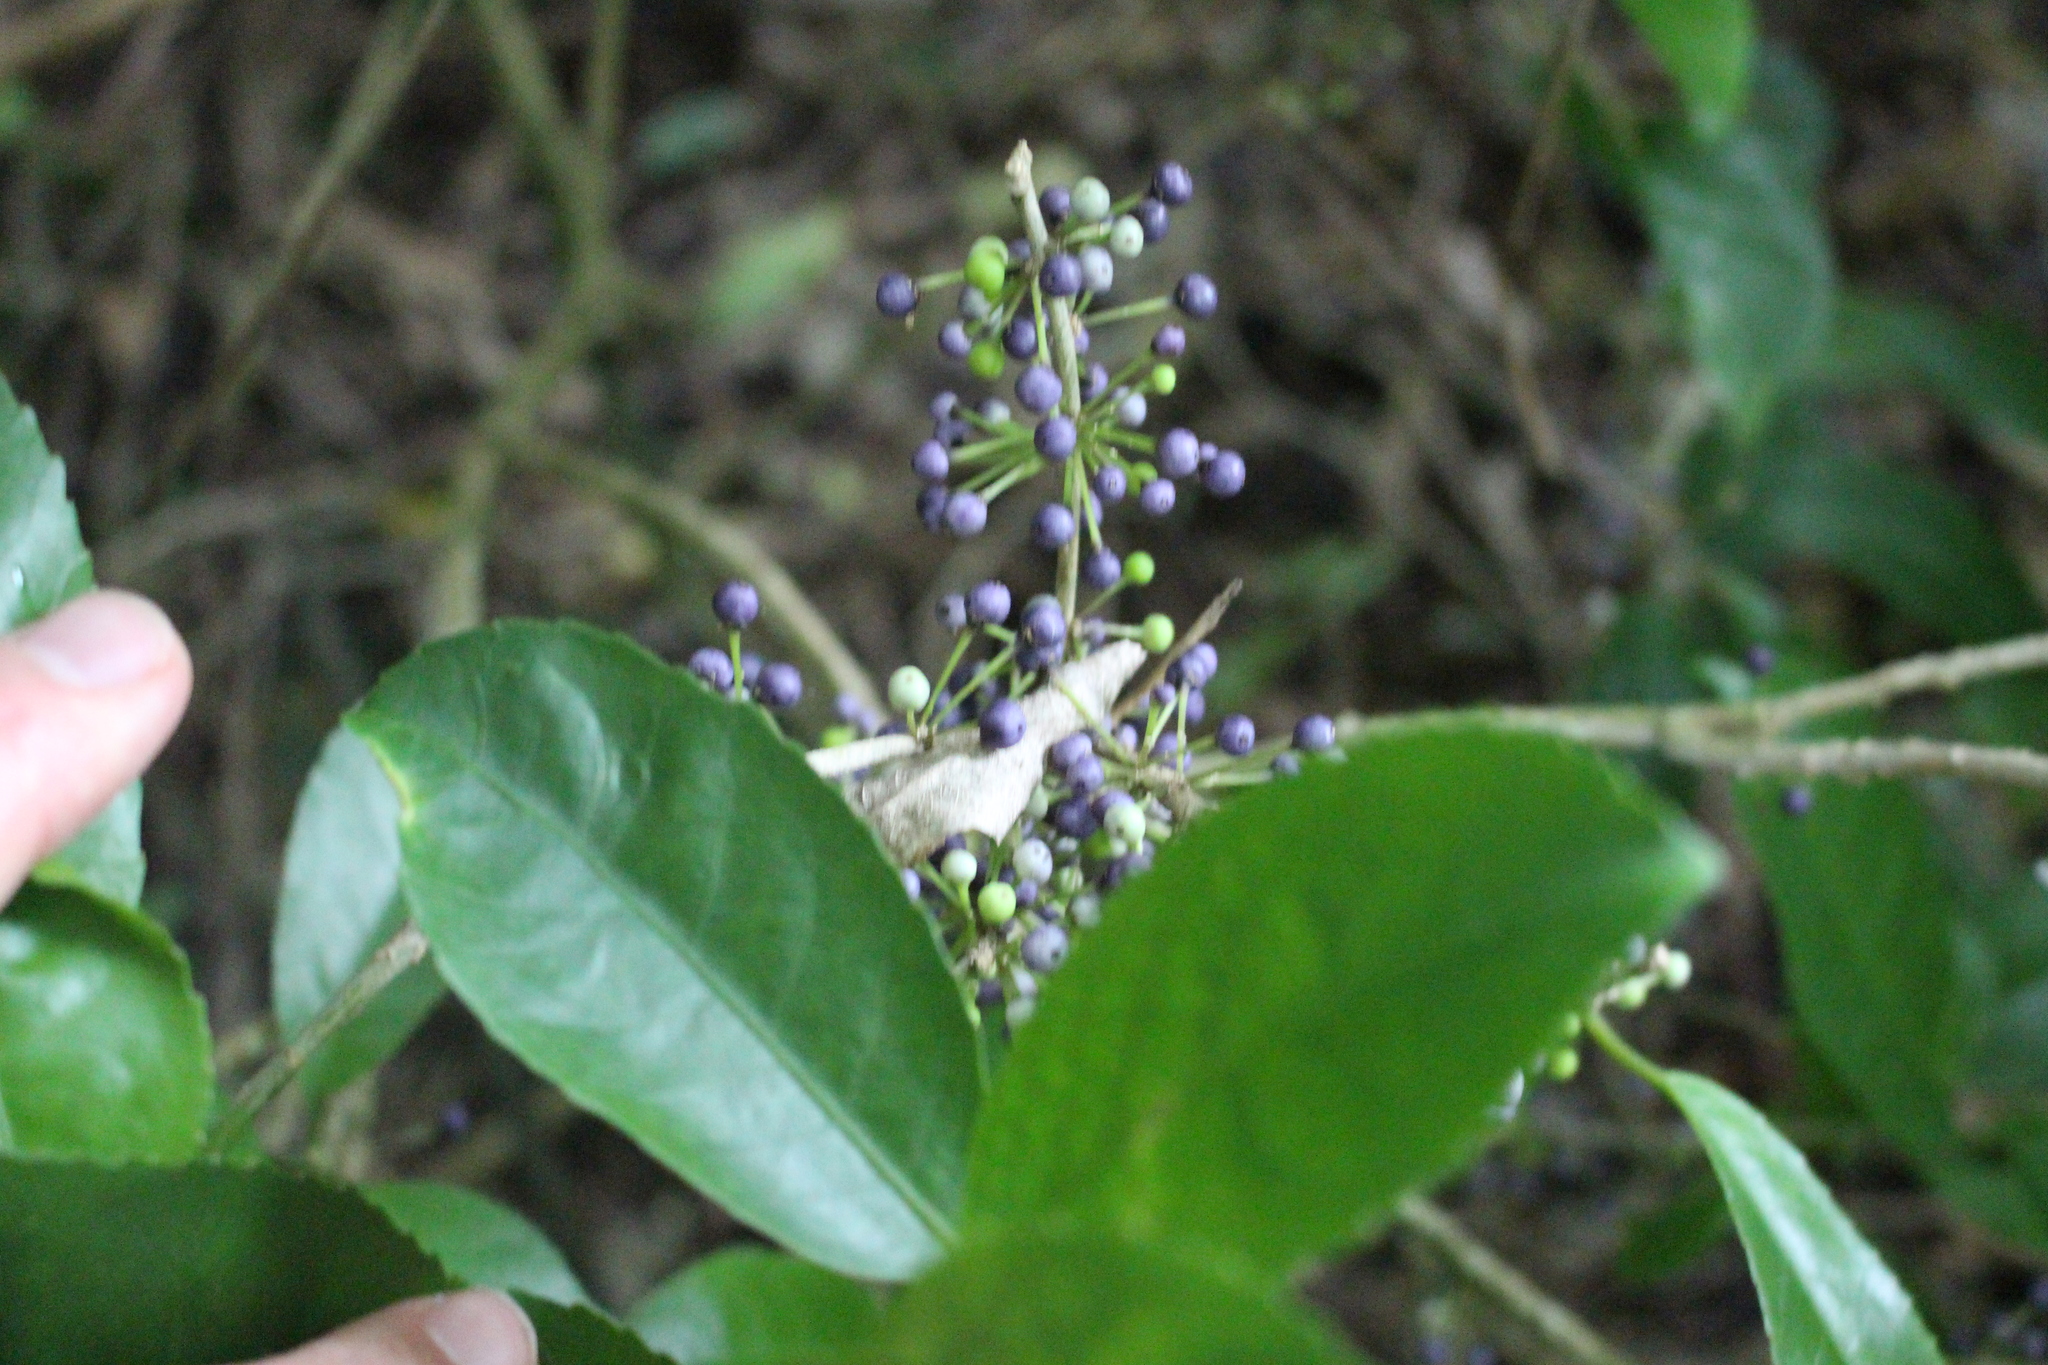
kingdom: Plantae
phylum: Tracheophyta
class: Magnoliopsida
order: Malpighiales
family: Violaceae
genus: Melicytus
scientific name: Melicytus ramiflorus
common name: Mahoe
